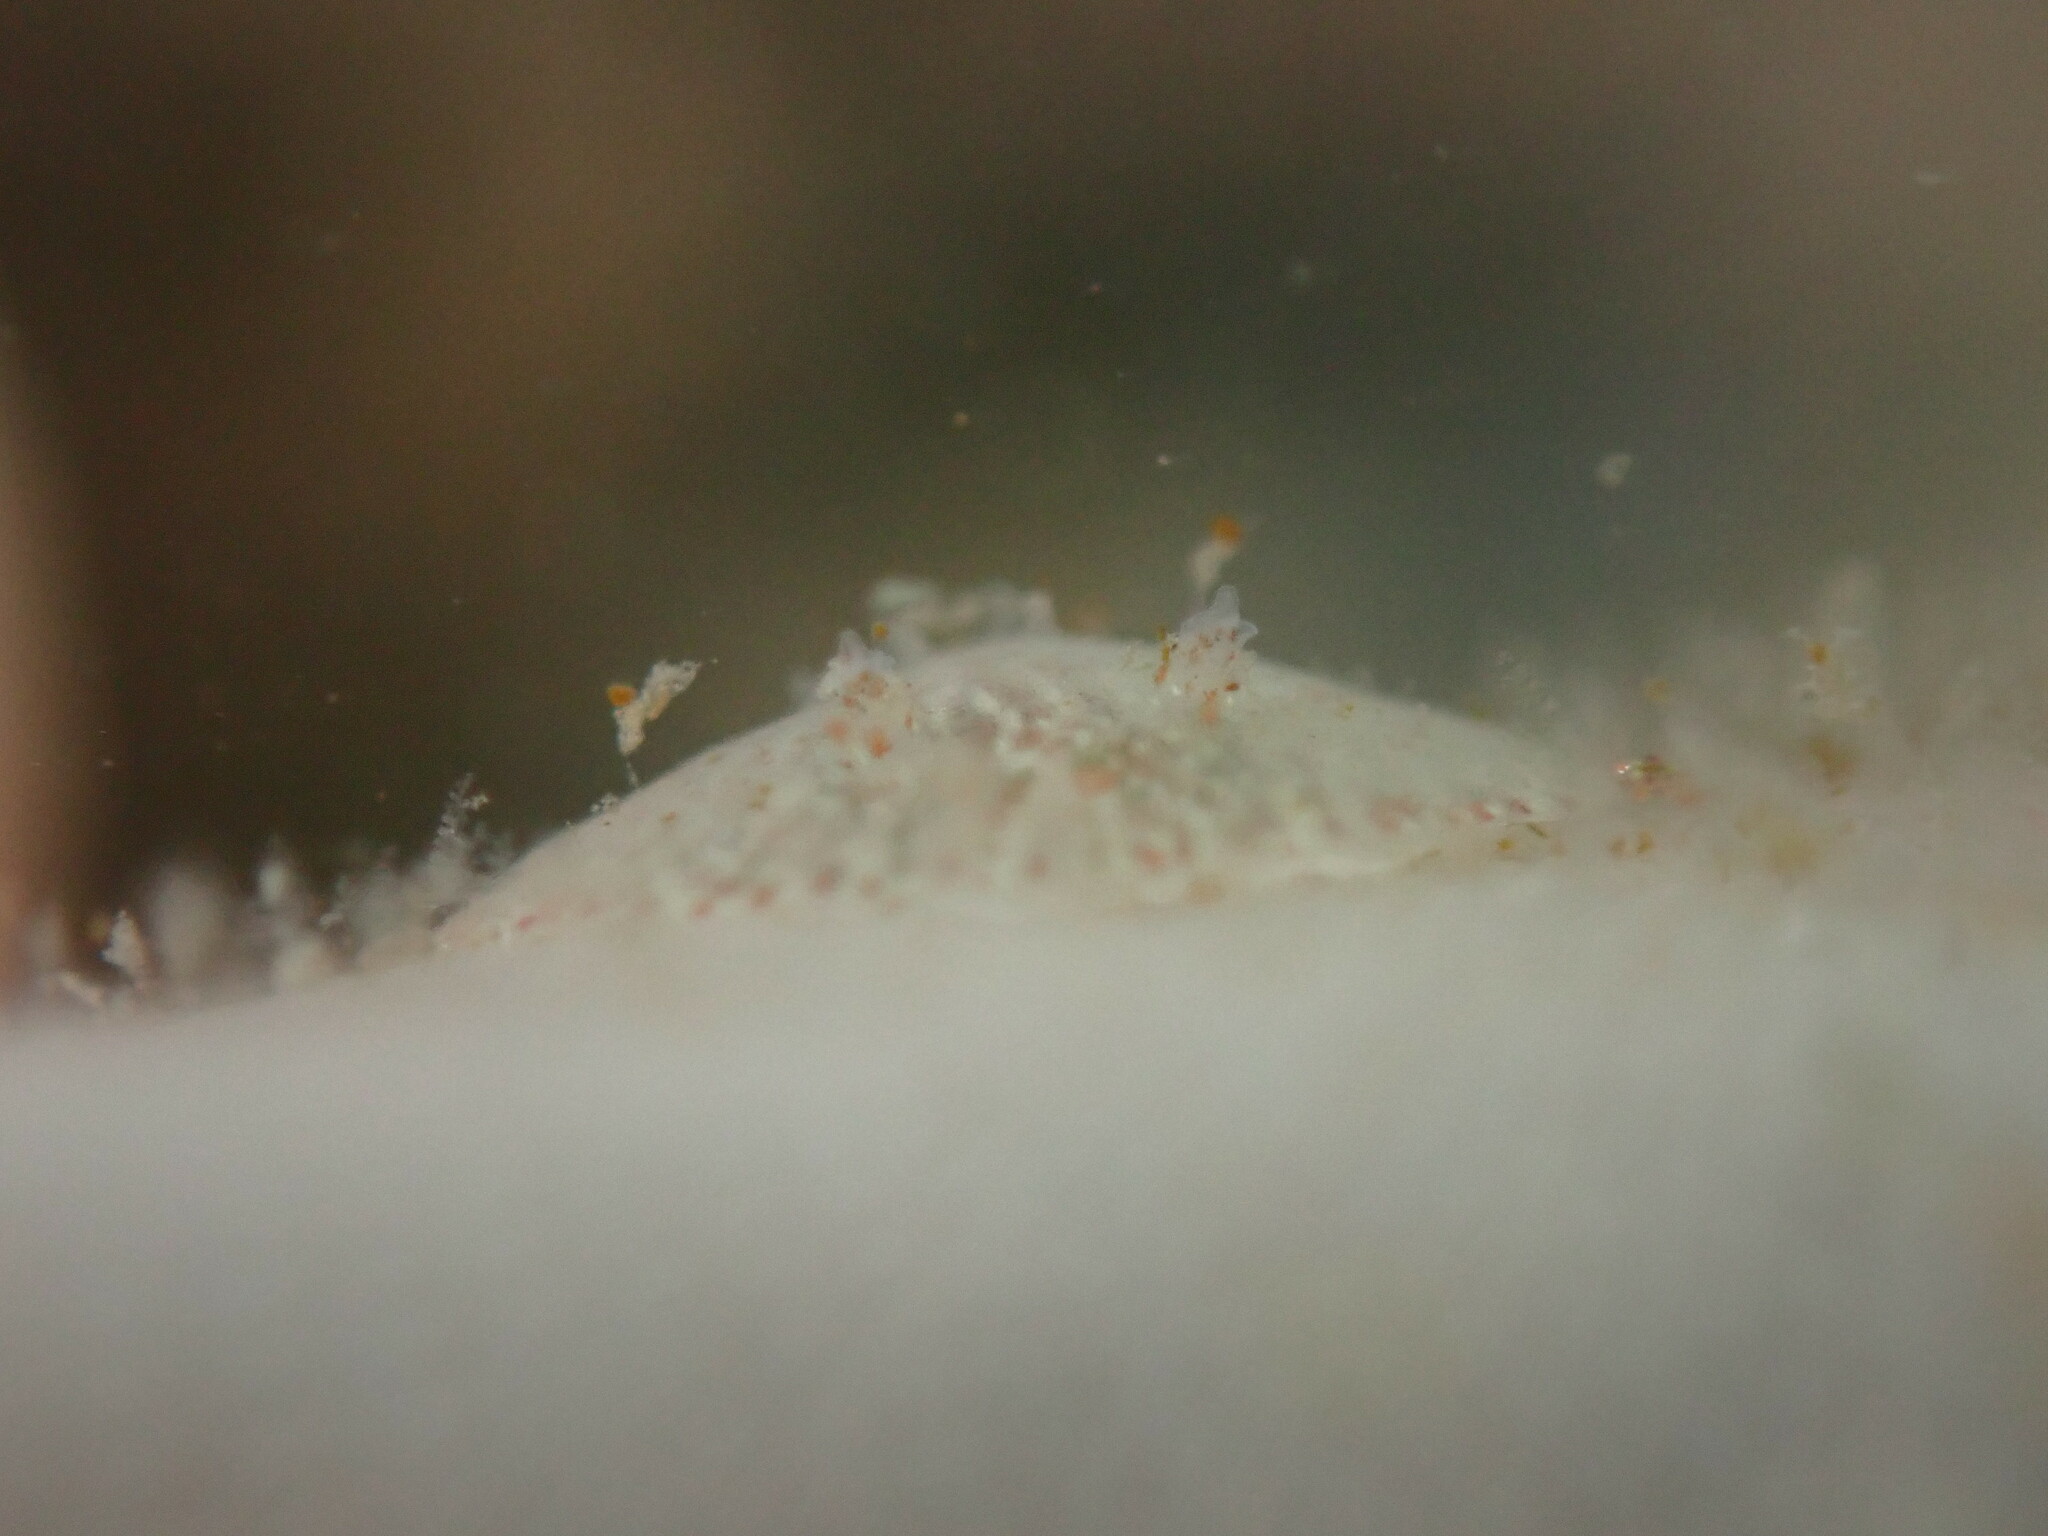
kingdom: Animalia
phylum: Mollusca
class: Gastropoda
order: Nudibranchia
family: Corambidae
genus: Corambe
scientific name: Corambe pacifica
